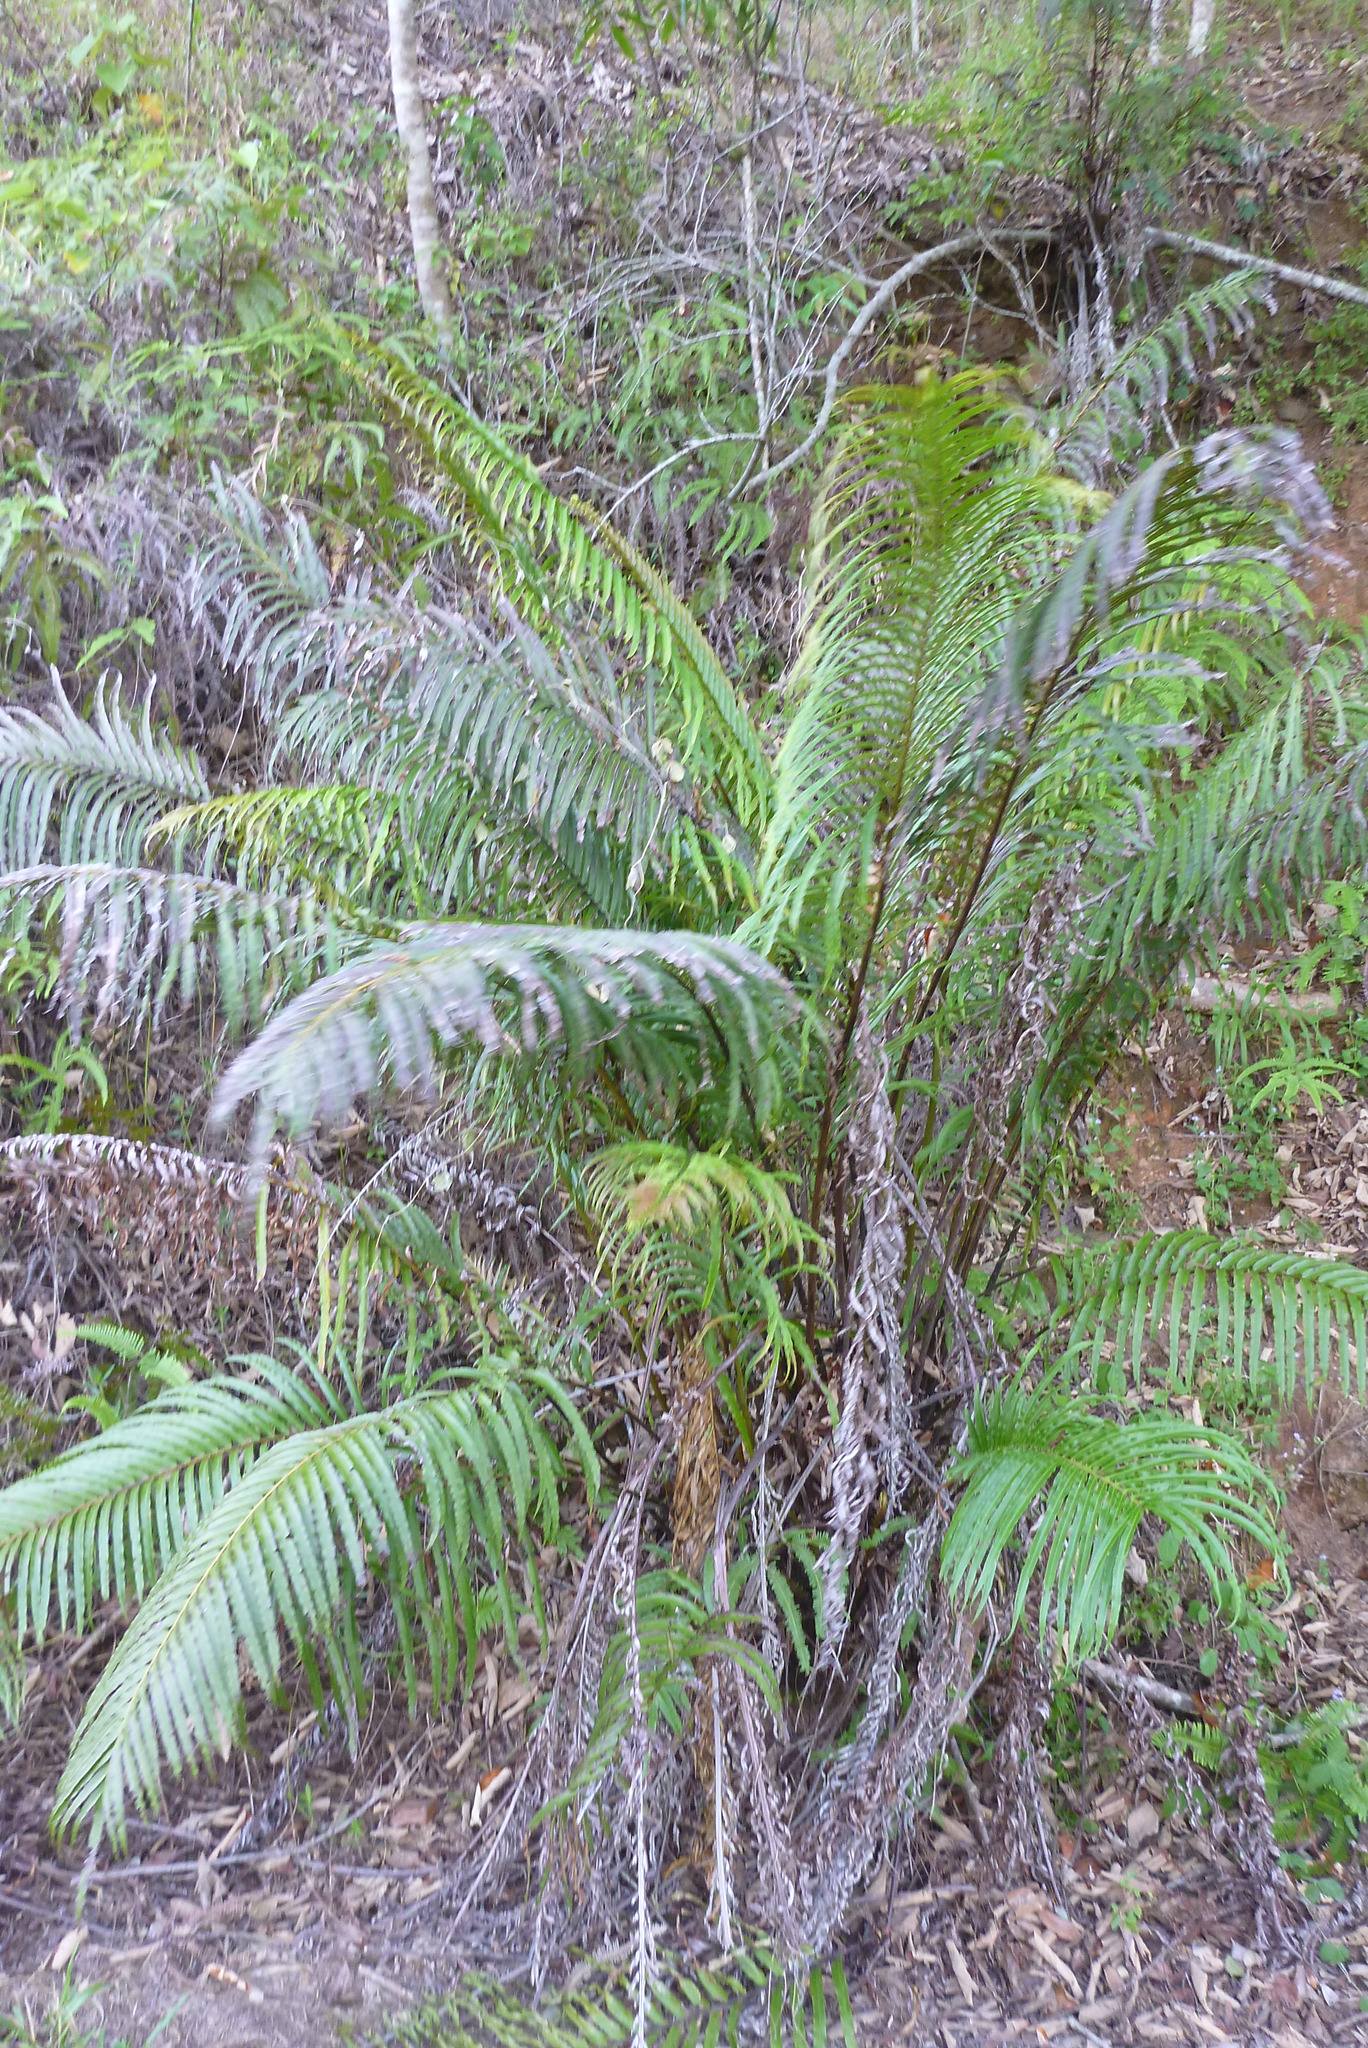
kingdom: Plantae
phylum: Tracheophyta
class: Polypodiopsida
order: Polypodiales
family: Blechnaceae
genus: Blechnopsis
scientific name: Blechnopsis orientalis
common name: Oriental blechnum
